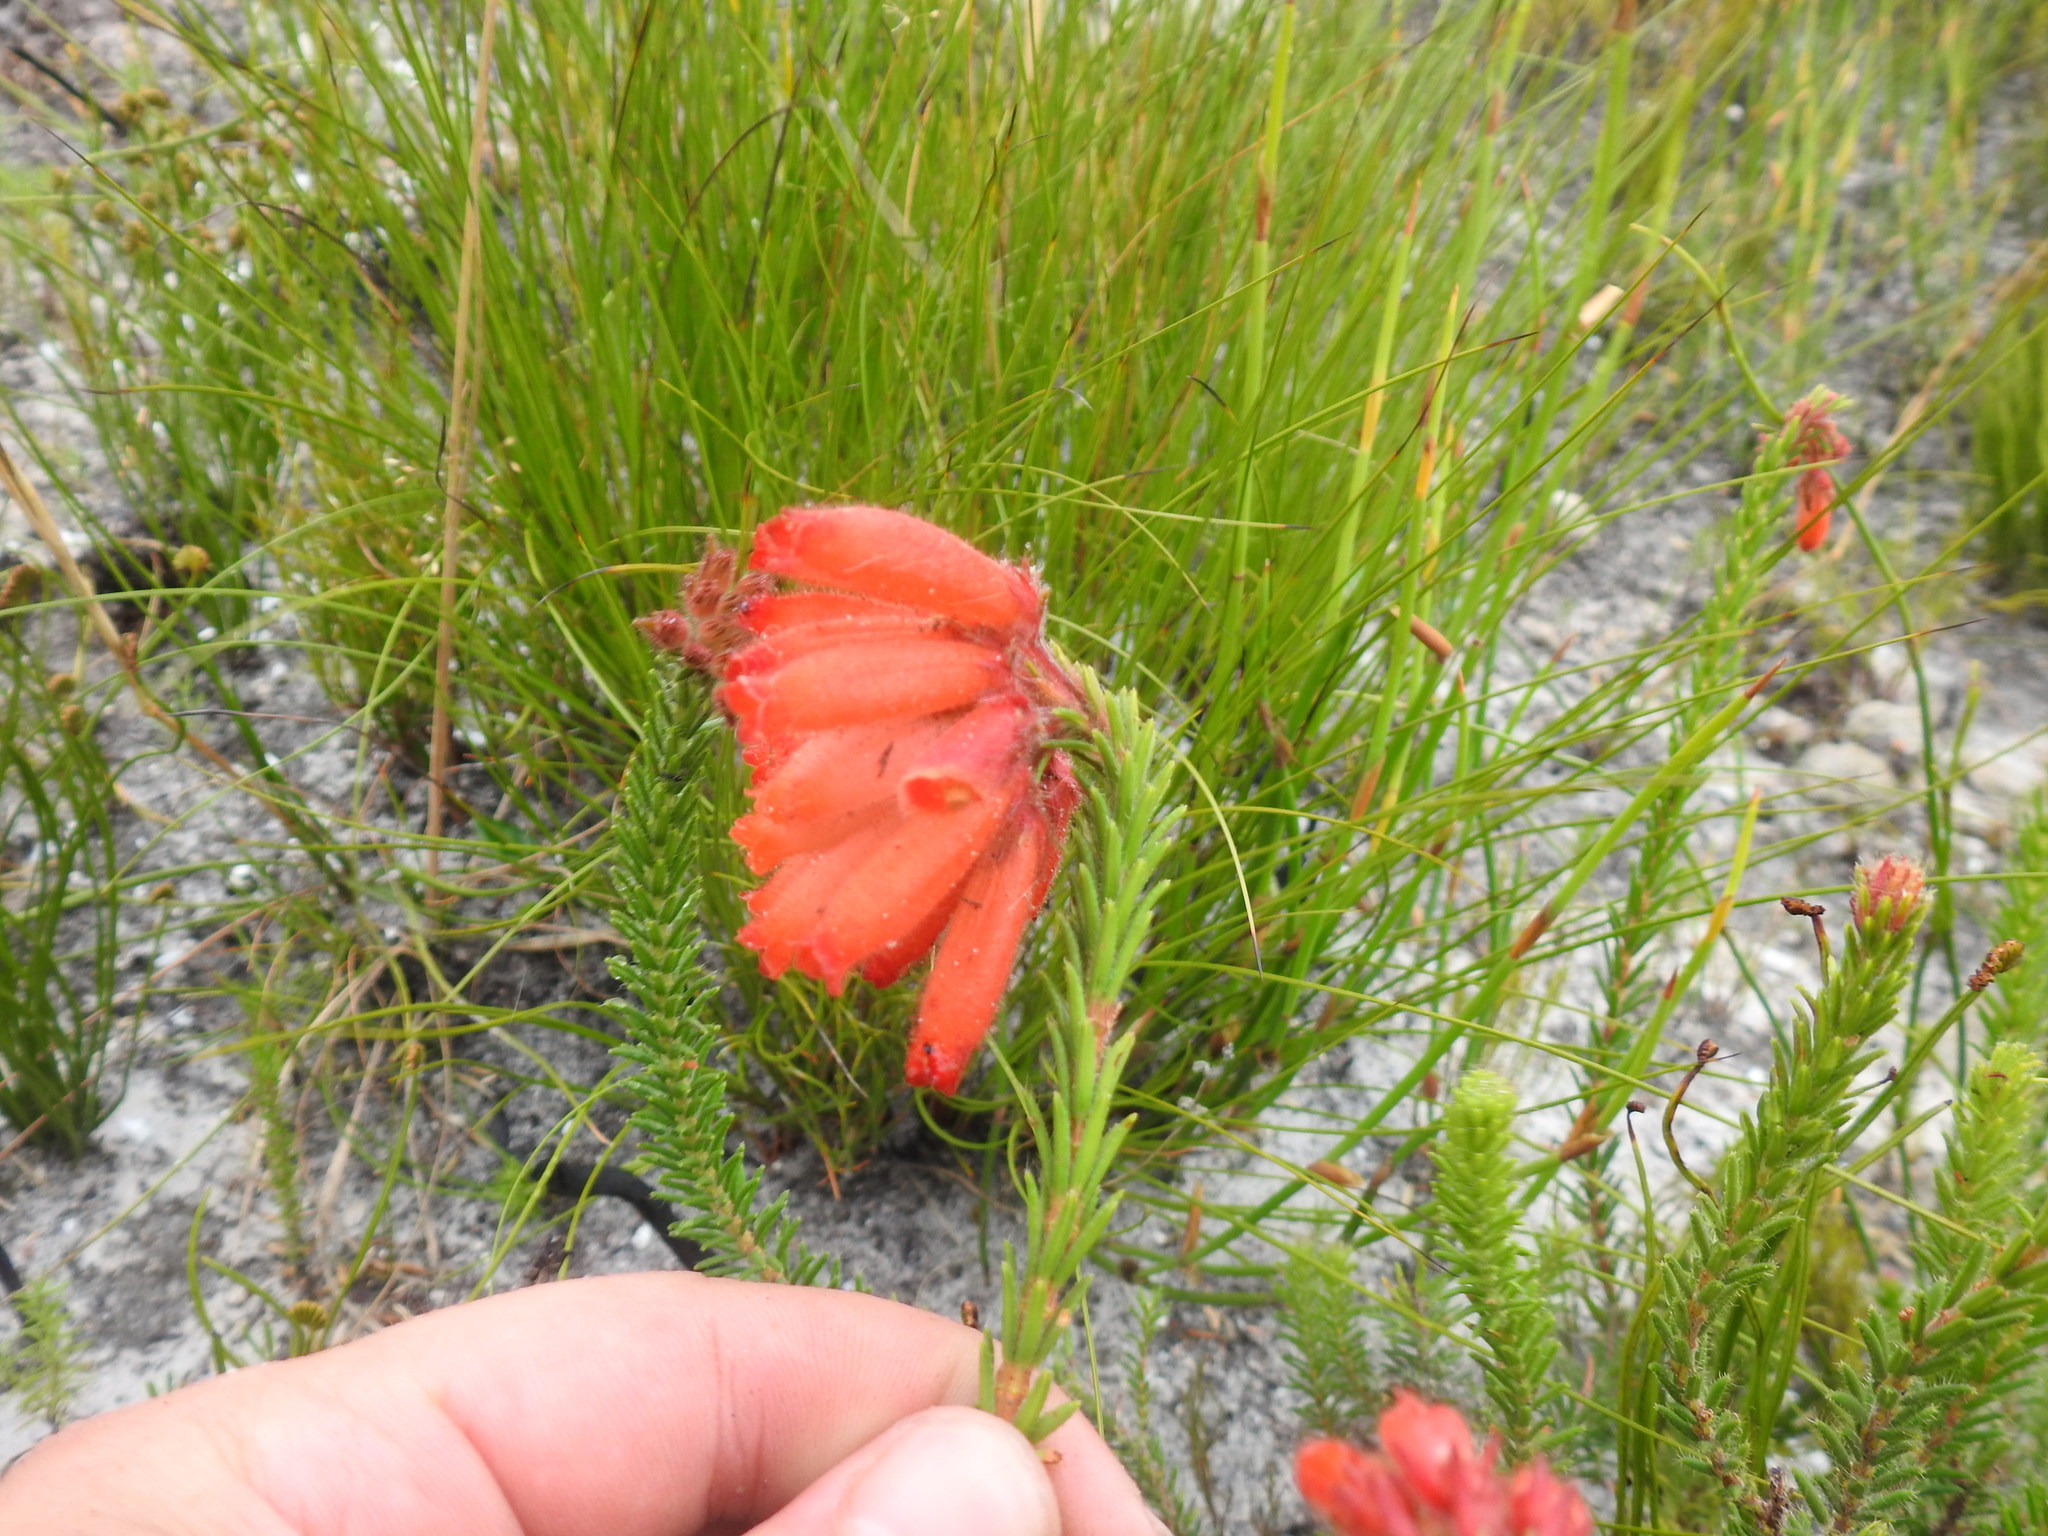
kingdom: Plantae
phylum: Tracheophyta
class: Magnoliopsida
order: Ericales
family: Ericaceae
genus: Erica
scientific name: Erica cerinthoides
